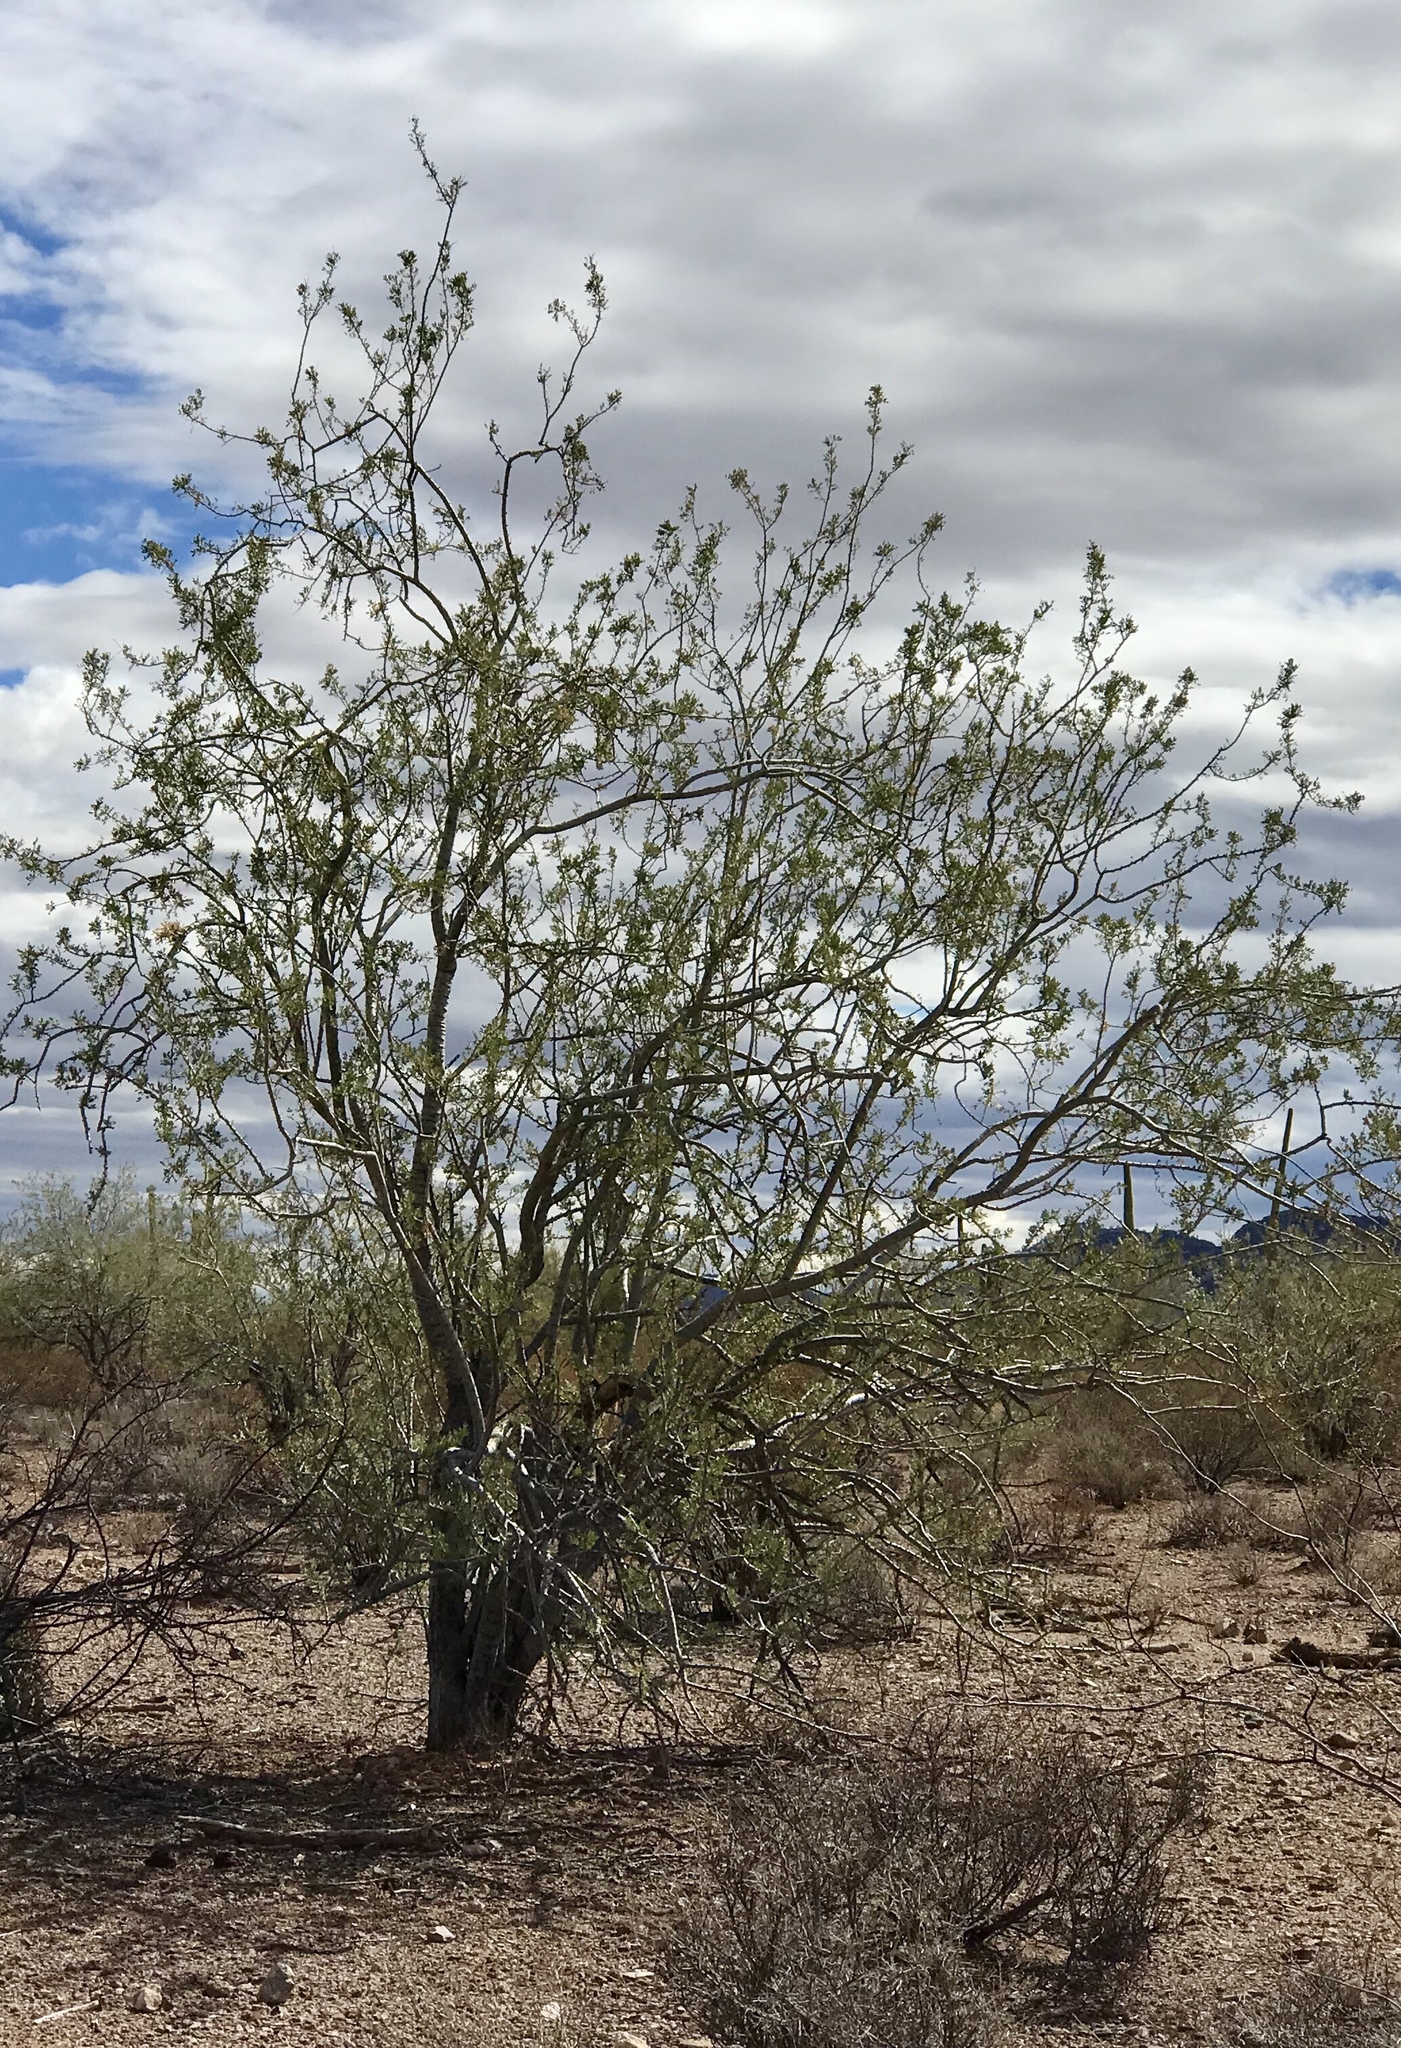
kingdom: Plantae
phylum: Tracheophyta
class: Magnoliopsida
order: Fabales
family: Fabaceae
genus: Olneya
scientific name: Olneya tesota
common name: Desert ironwood
